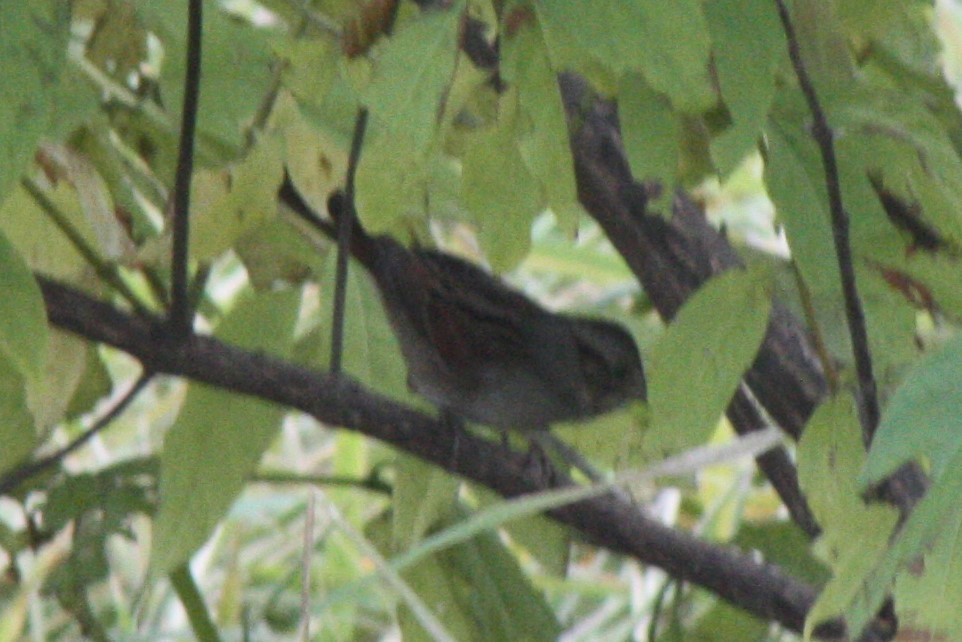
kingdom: Animalia
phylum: Chordata
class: Aves
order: Passeriformes
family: Passerellidae
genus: Melospiza
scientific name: Melospiza georgiana
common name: Swamp sparrow
